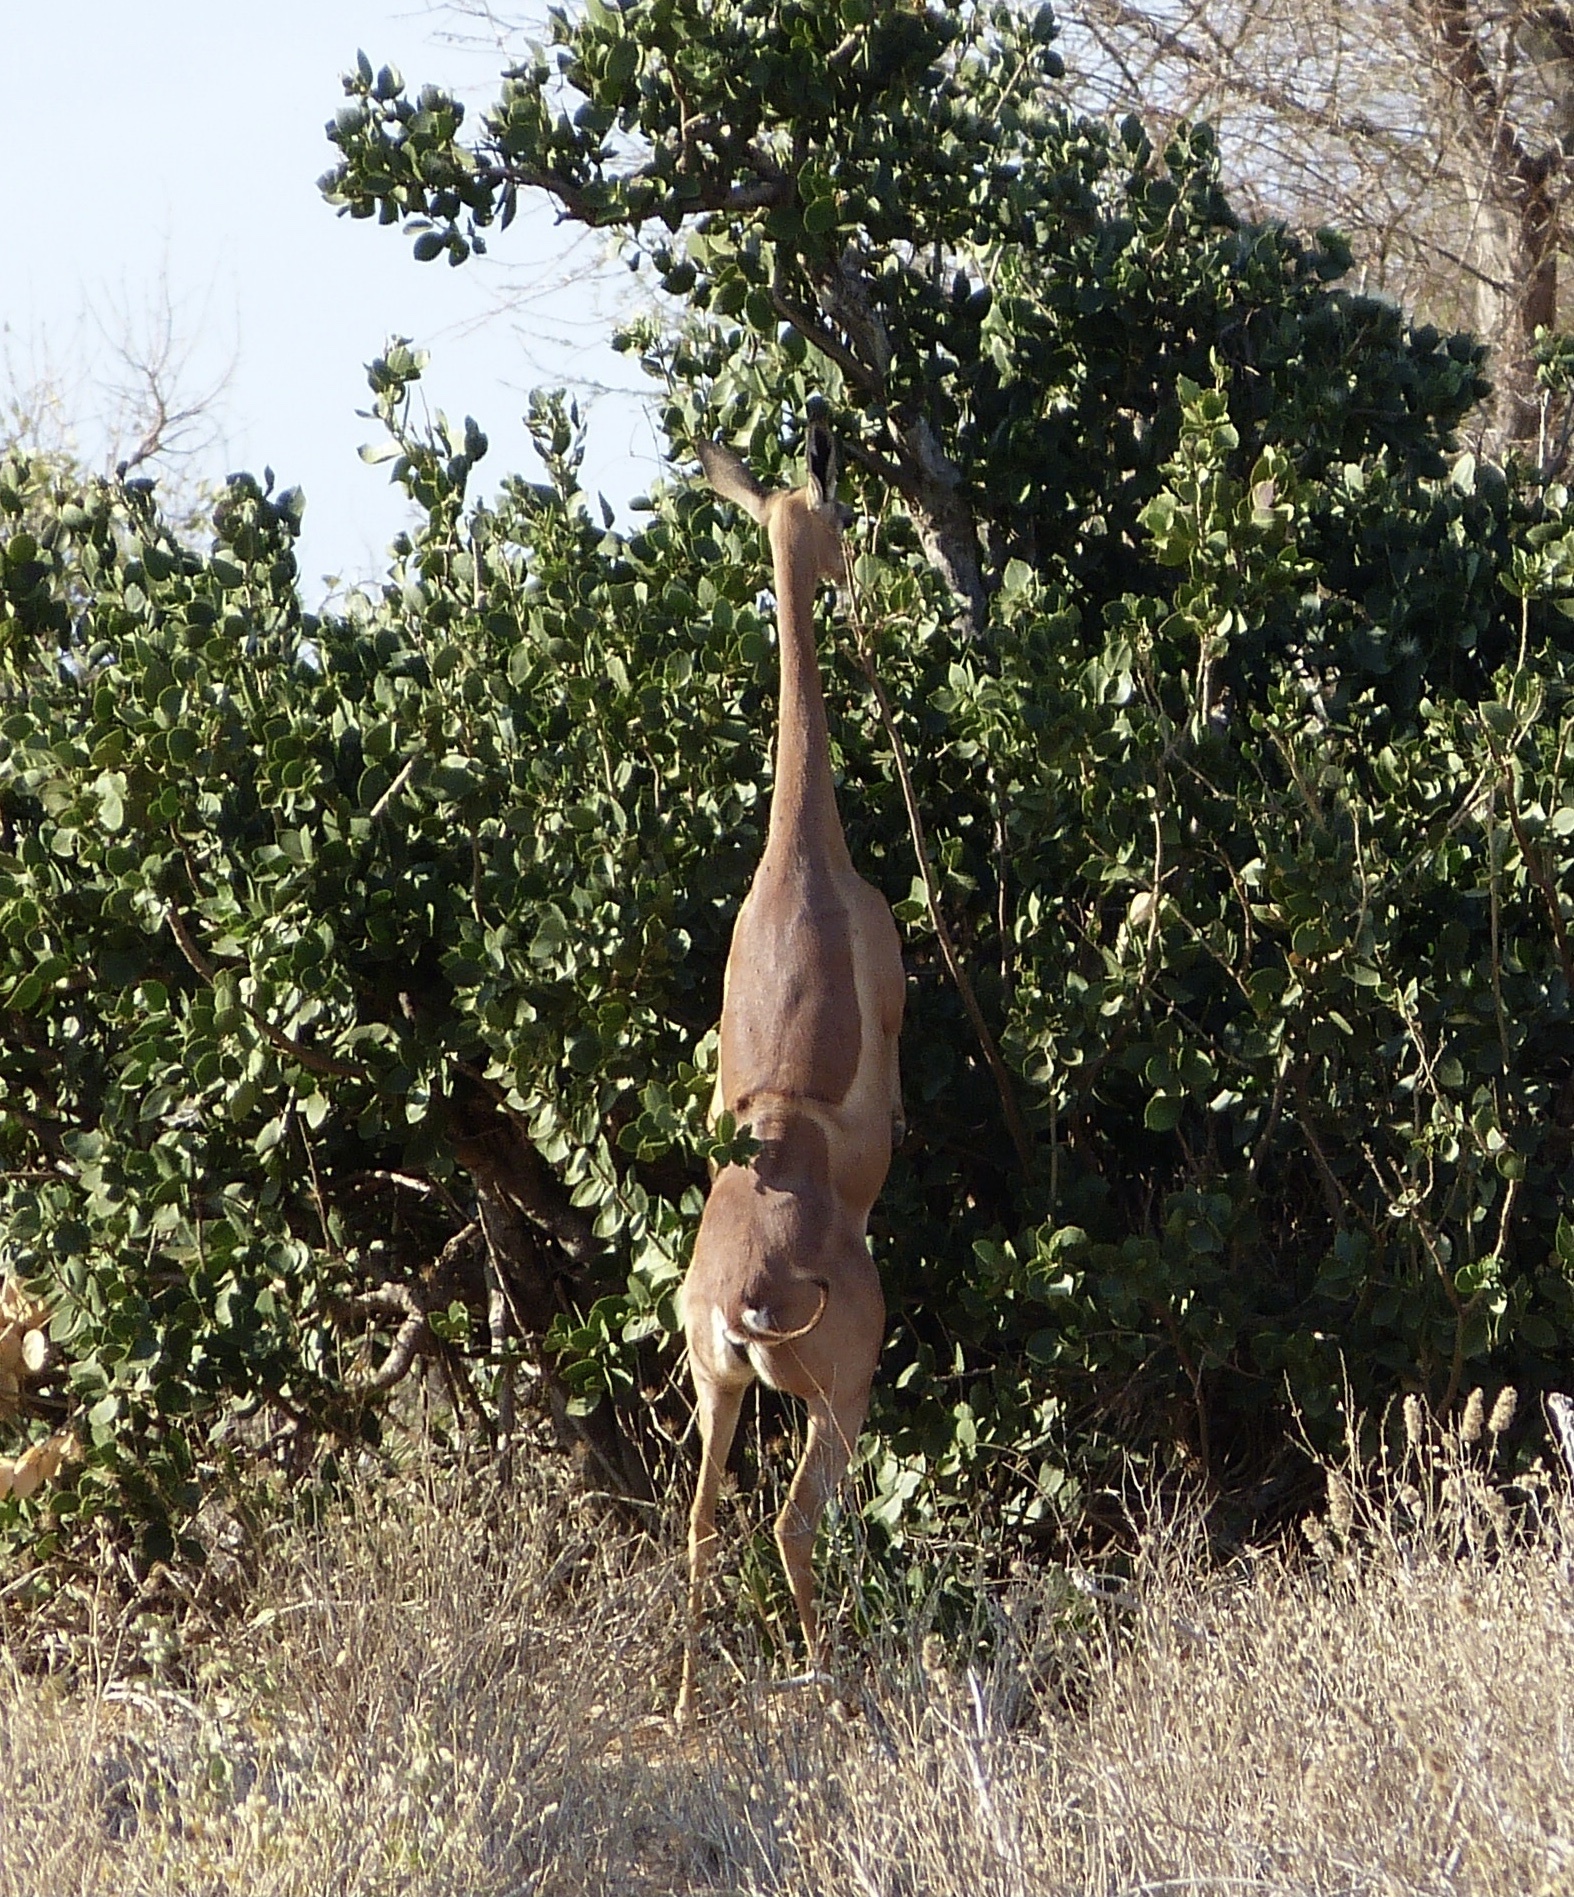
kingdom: Animalia
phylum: Chordata
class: Mammalia
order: Artiodactyla
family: Bovidae
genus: Litocranius
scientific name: Litocranius walleri
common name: Gerenuk
